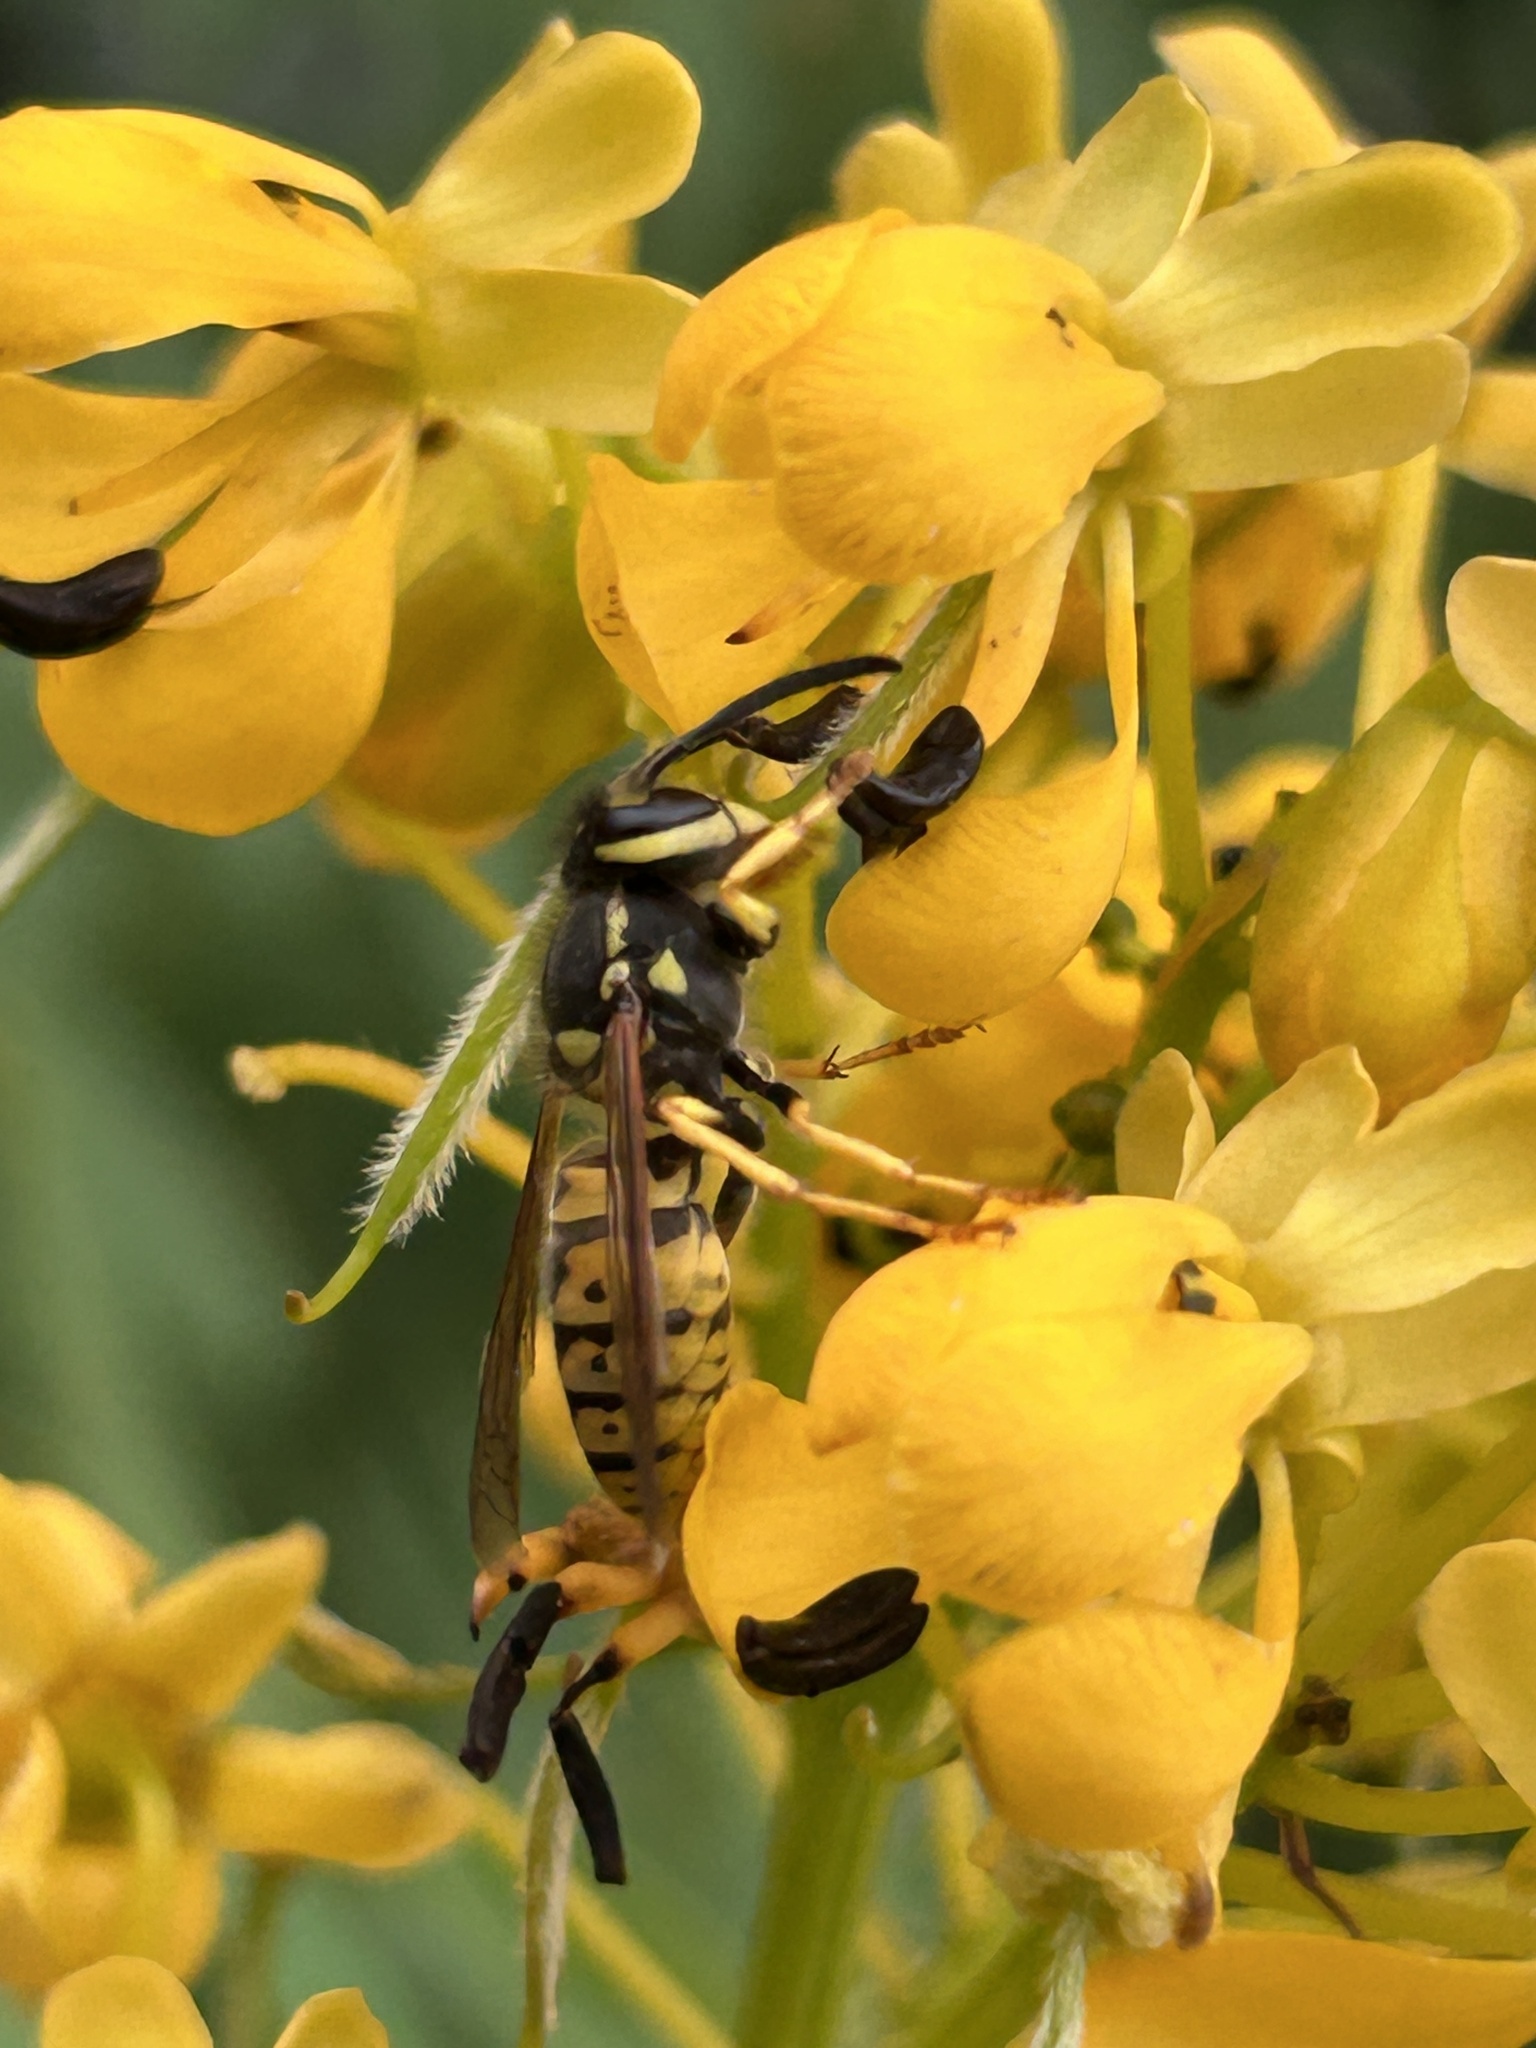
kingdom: Animalia
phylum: Arthropoda
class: Insecta
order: Hymenoptera
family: Vespidae
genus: Vespula
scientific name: Vespula germanica
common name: German wasp
